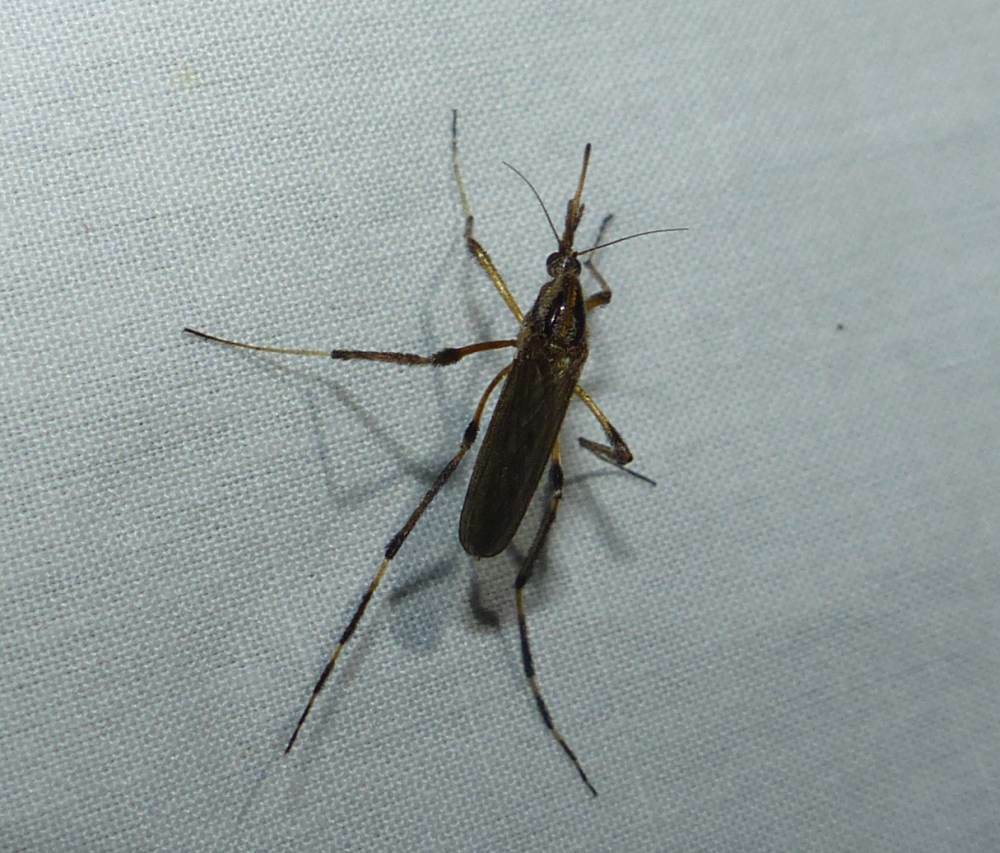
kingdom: Animalia
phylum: Arthropoda
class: Insecta
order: Diptera
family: Culicidae
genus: Psorophora
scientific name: Psorophora ciliata
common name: Gallinipper
